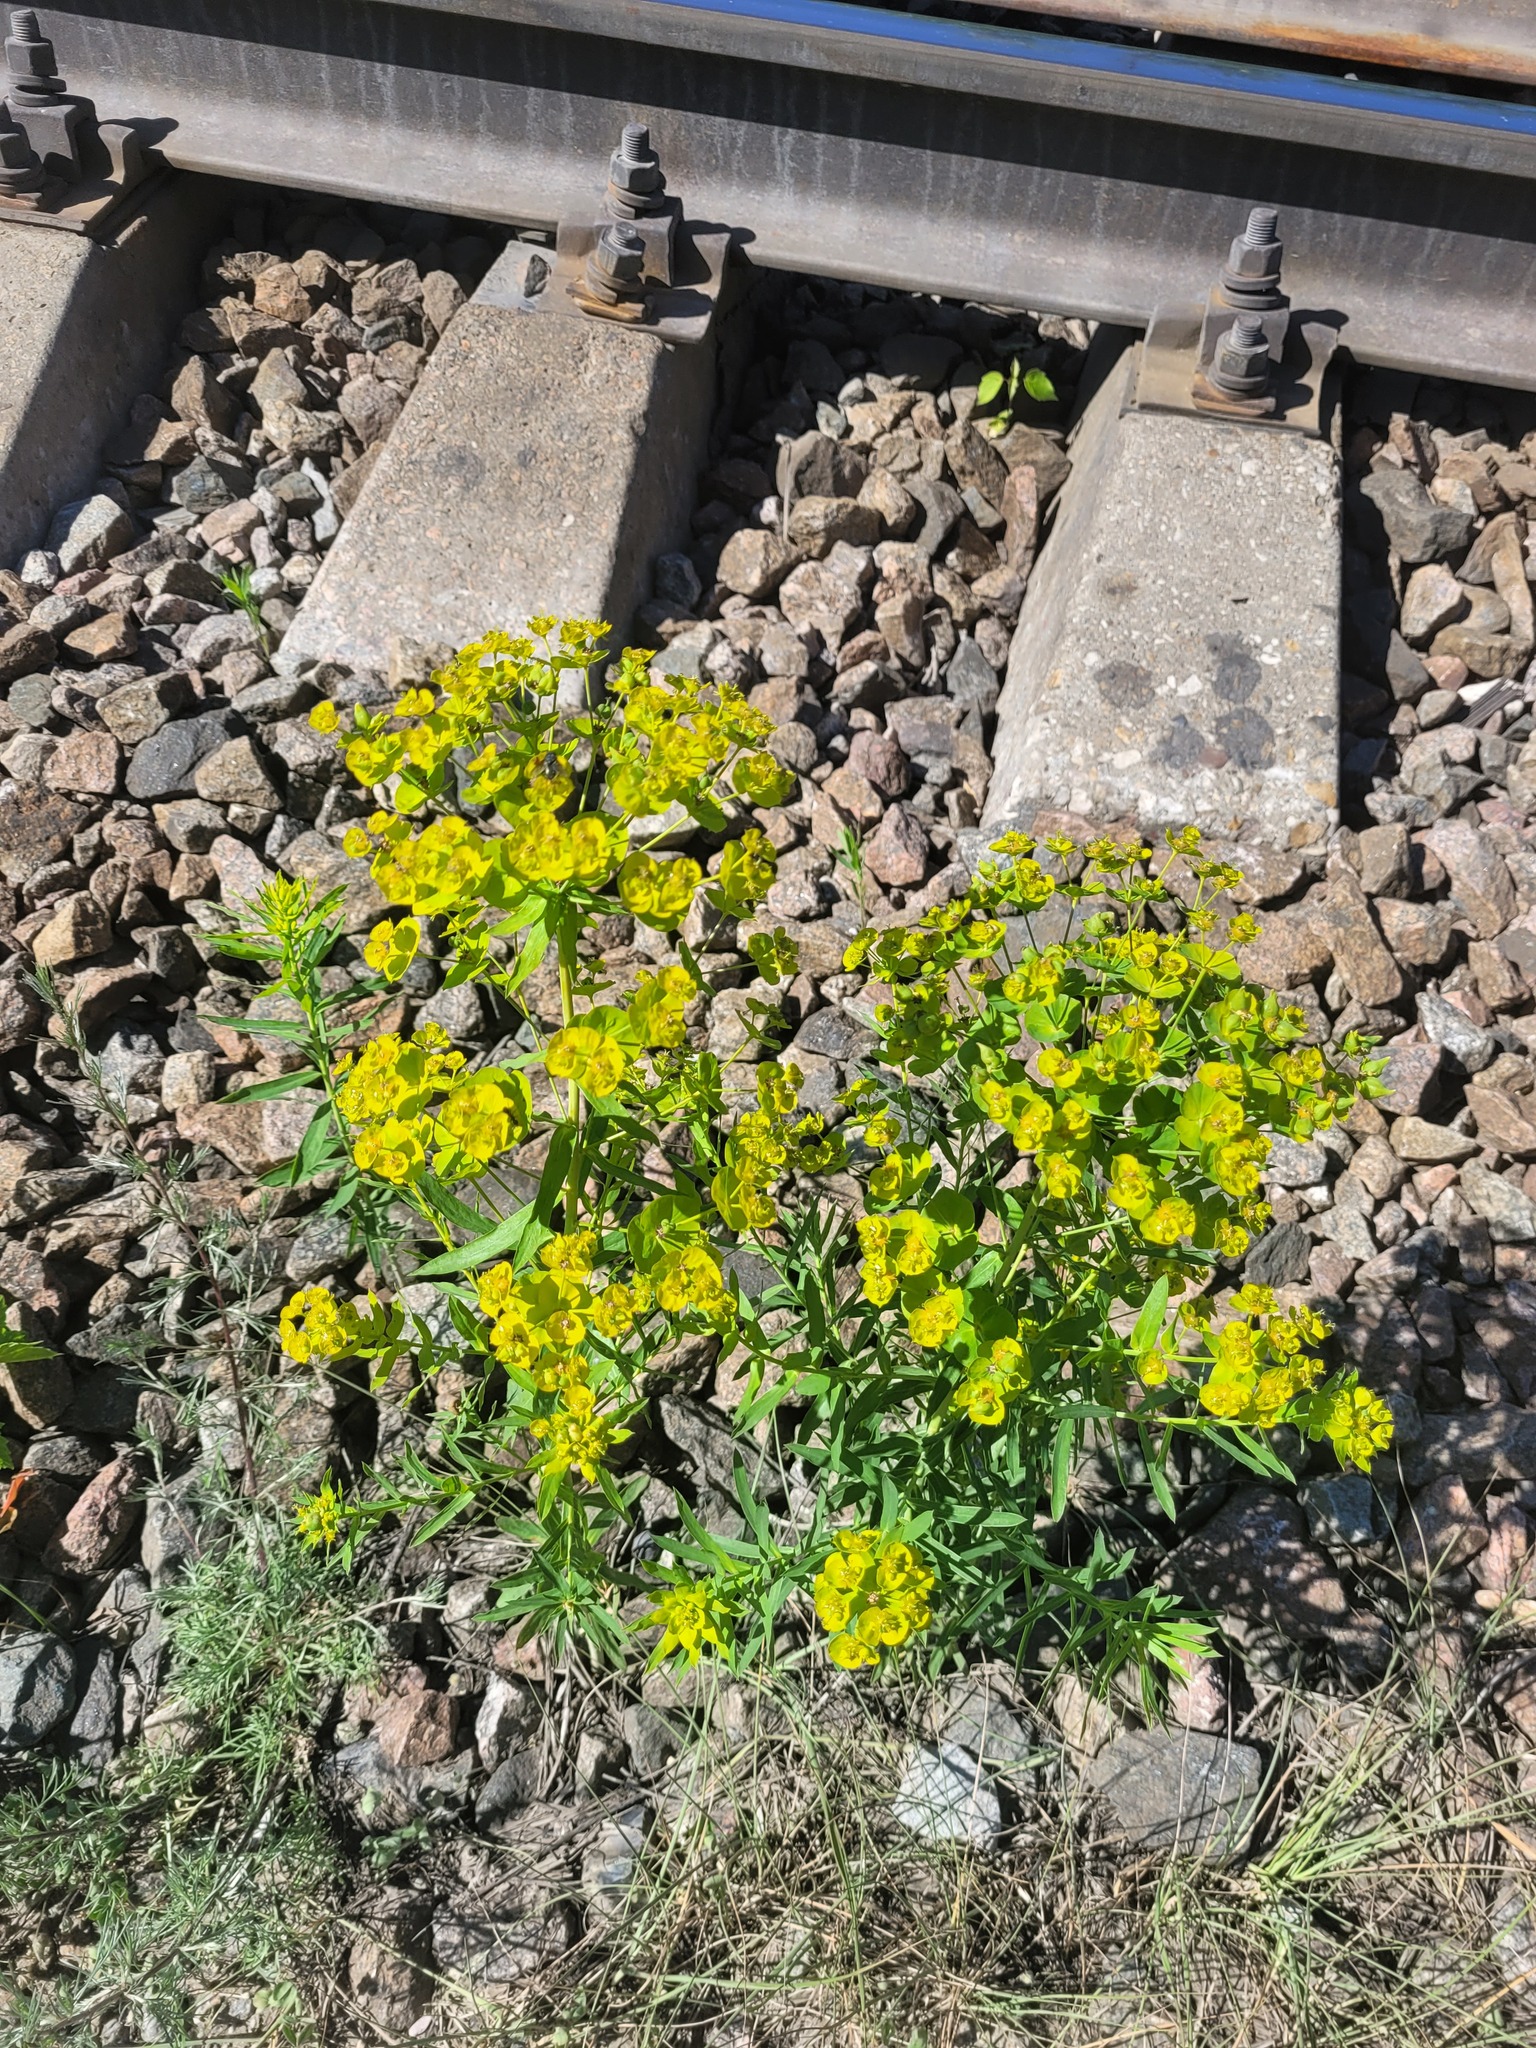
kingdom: Plantae
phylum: Tracheophyta
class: Magnoliopsida
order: Malpighiales
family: Euphorbiaceae
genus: Euphorbia
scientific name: Euphorbia virgata
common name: Leafy spurge
